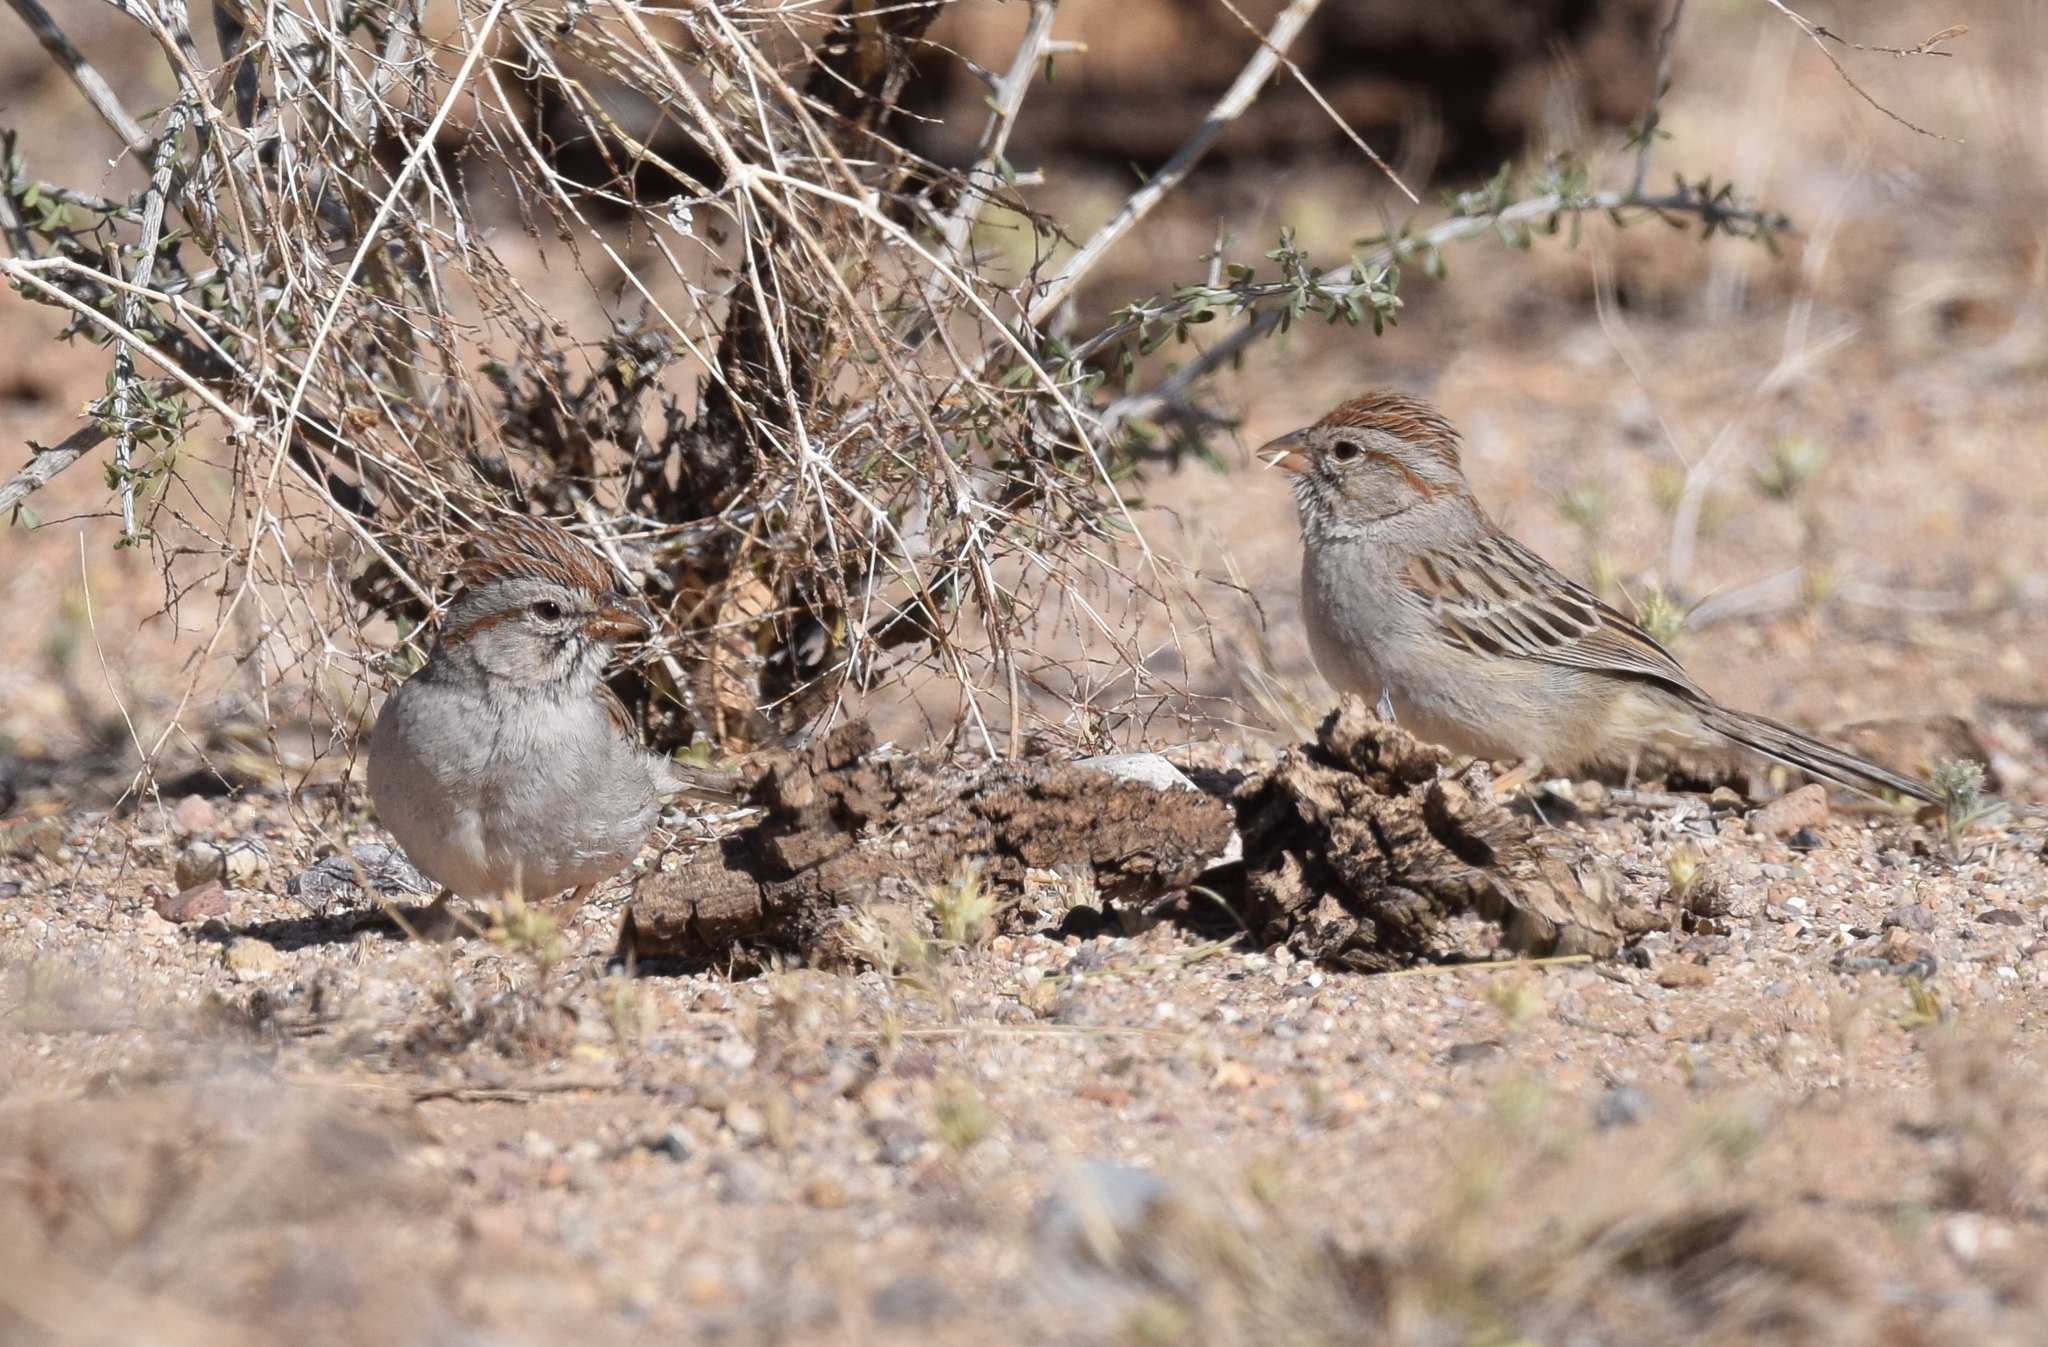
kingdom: Animalia
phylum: Chordata
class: Aves
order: Passeriformes
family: Passerellidae
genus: Peucaea
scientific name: Peucaea carpalis
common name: Rufous-winged sparrow
